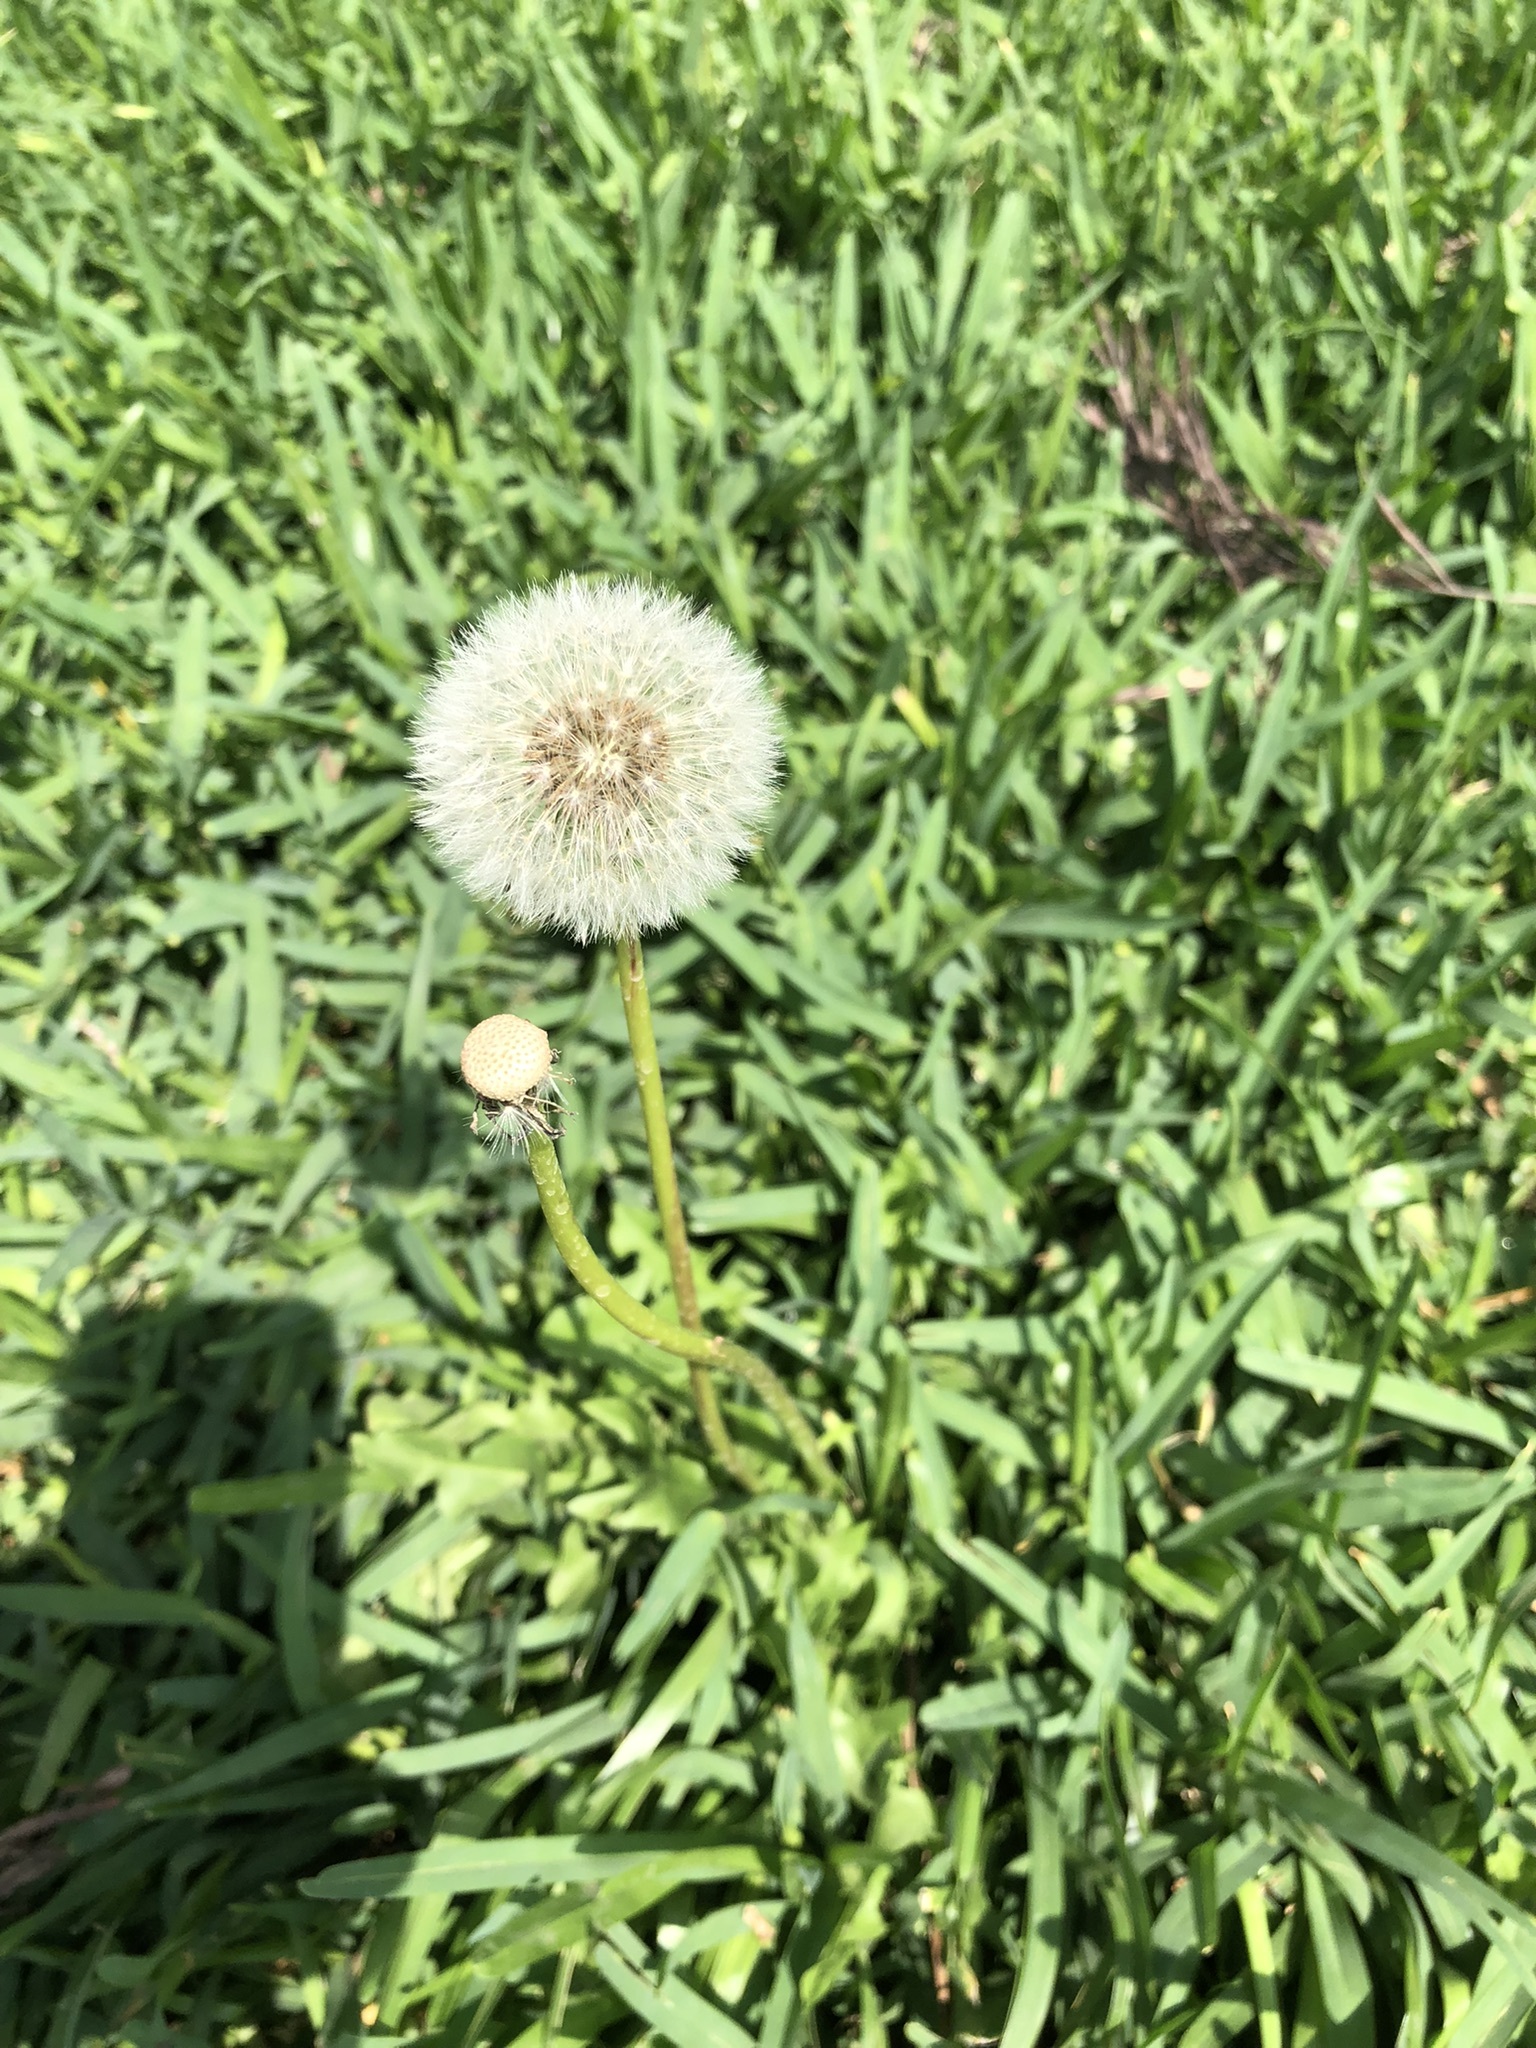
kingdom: Plantae
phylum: Tracheophyta
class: Magnoliopsida
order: Asterales
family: Asteraceae
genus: Taraxacum
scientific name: Taraxacum officinale
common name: Common dandelion
